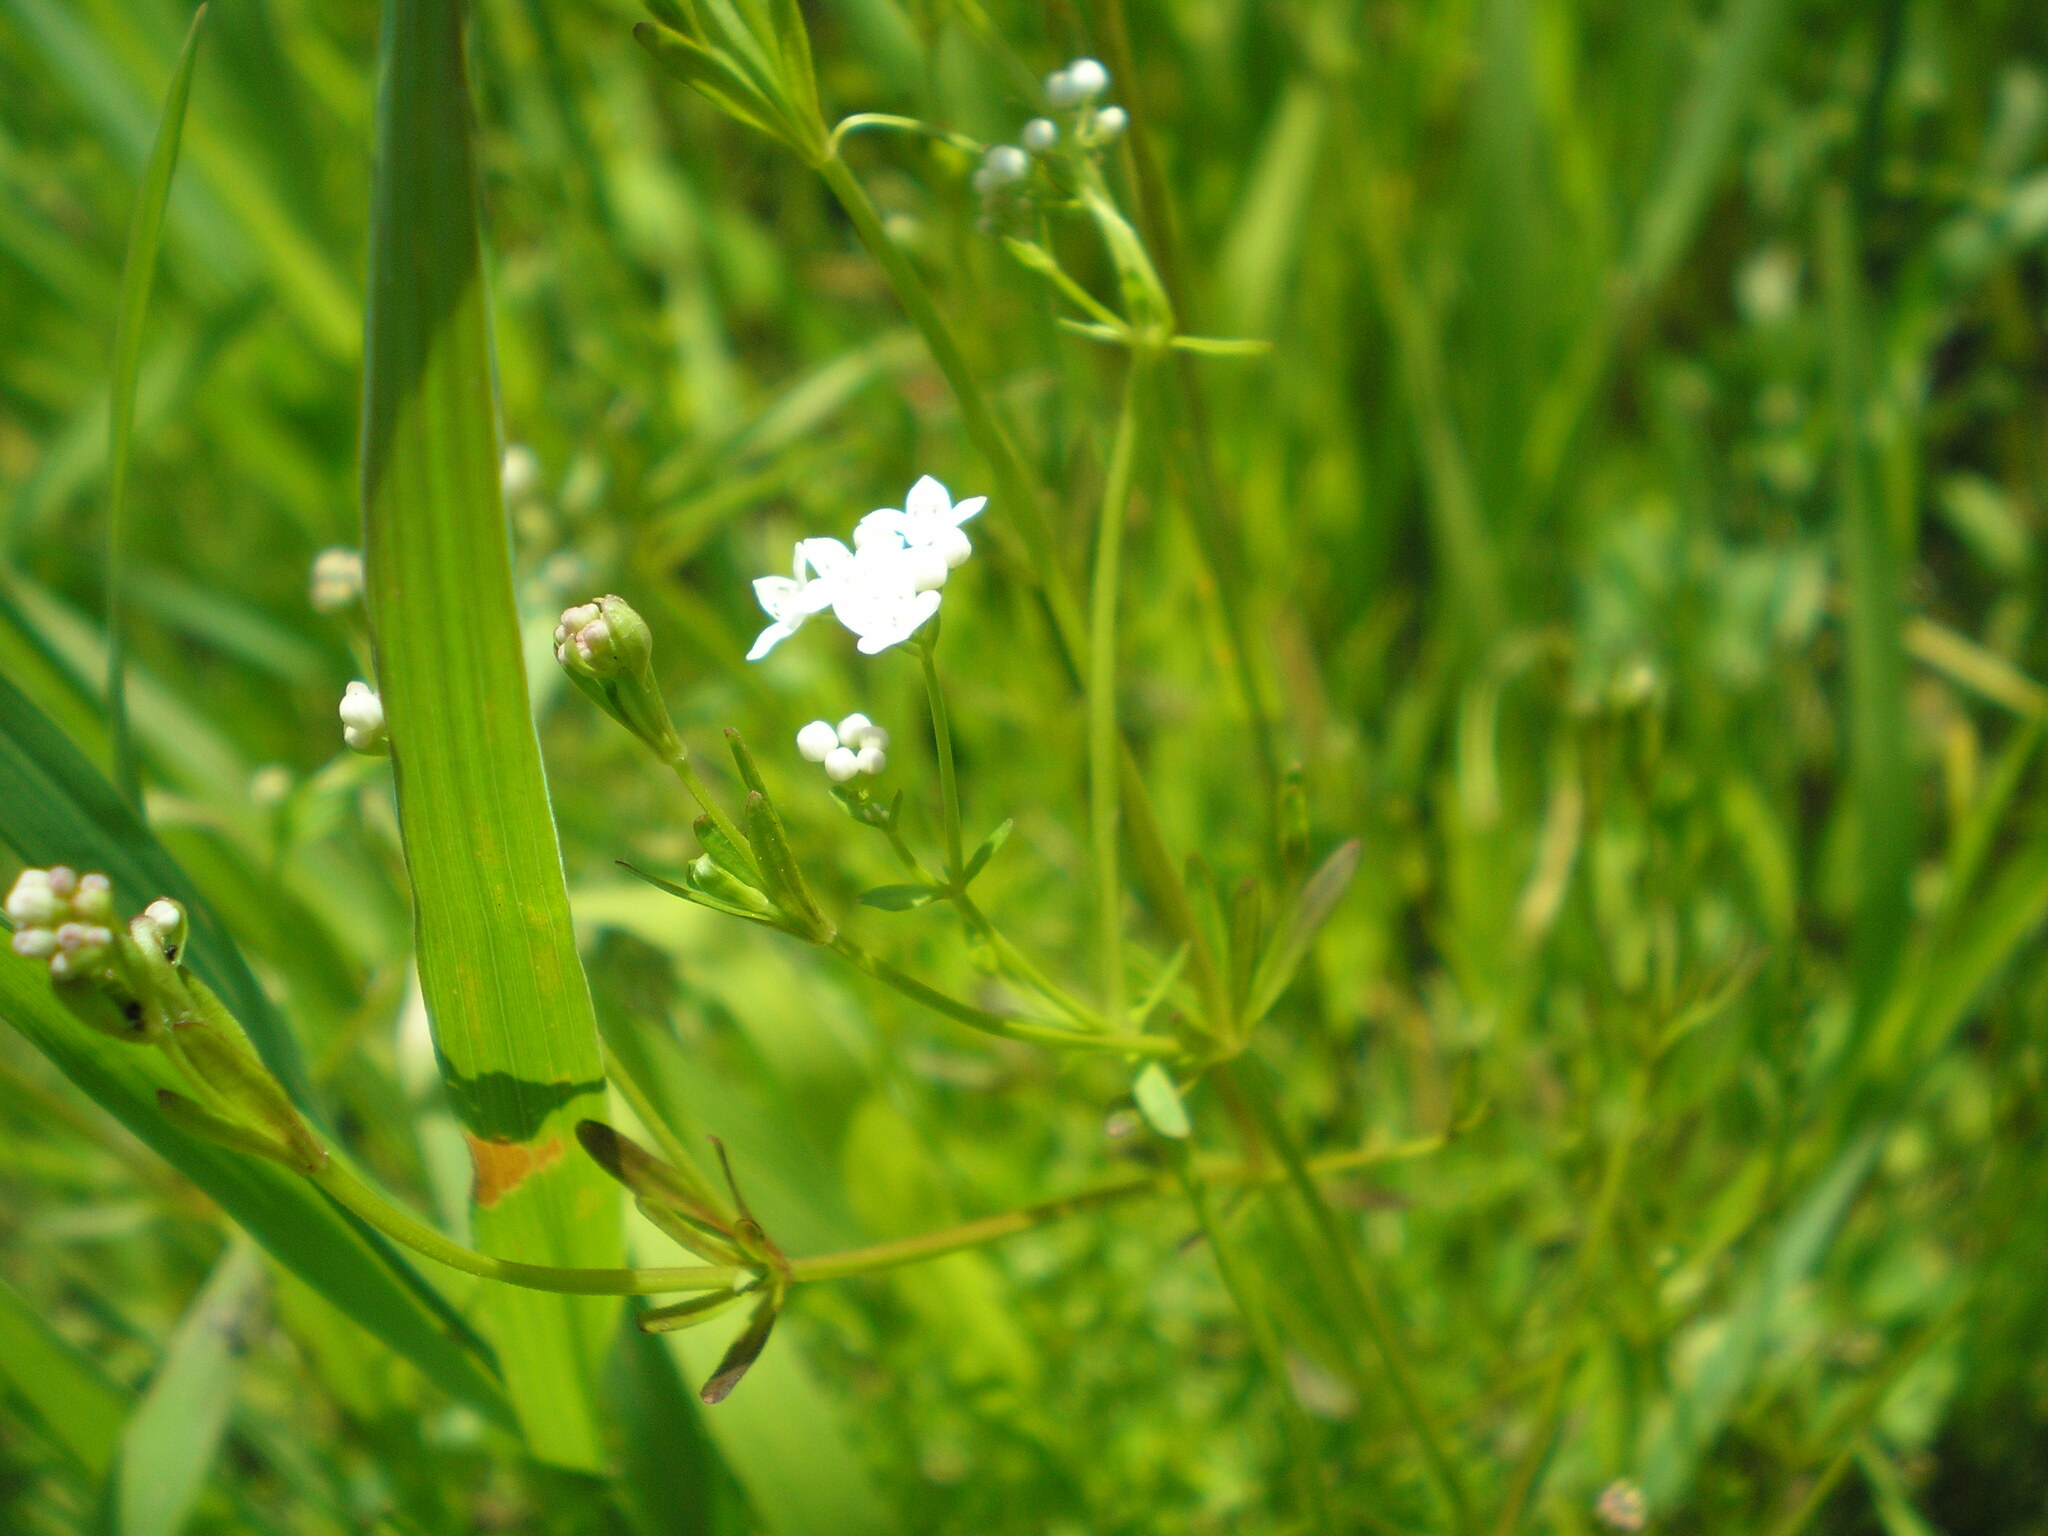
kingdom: Plantae
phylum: Tracheophyta
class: Magnoliopsida
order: Gentianales
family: Rubiaceae
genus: Galium
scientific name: Galium palustre
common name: Common marsh-bedstraw
